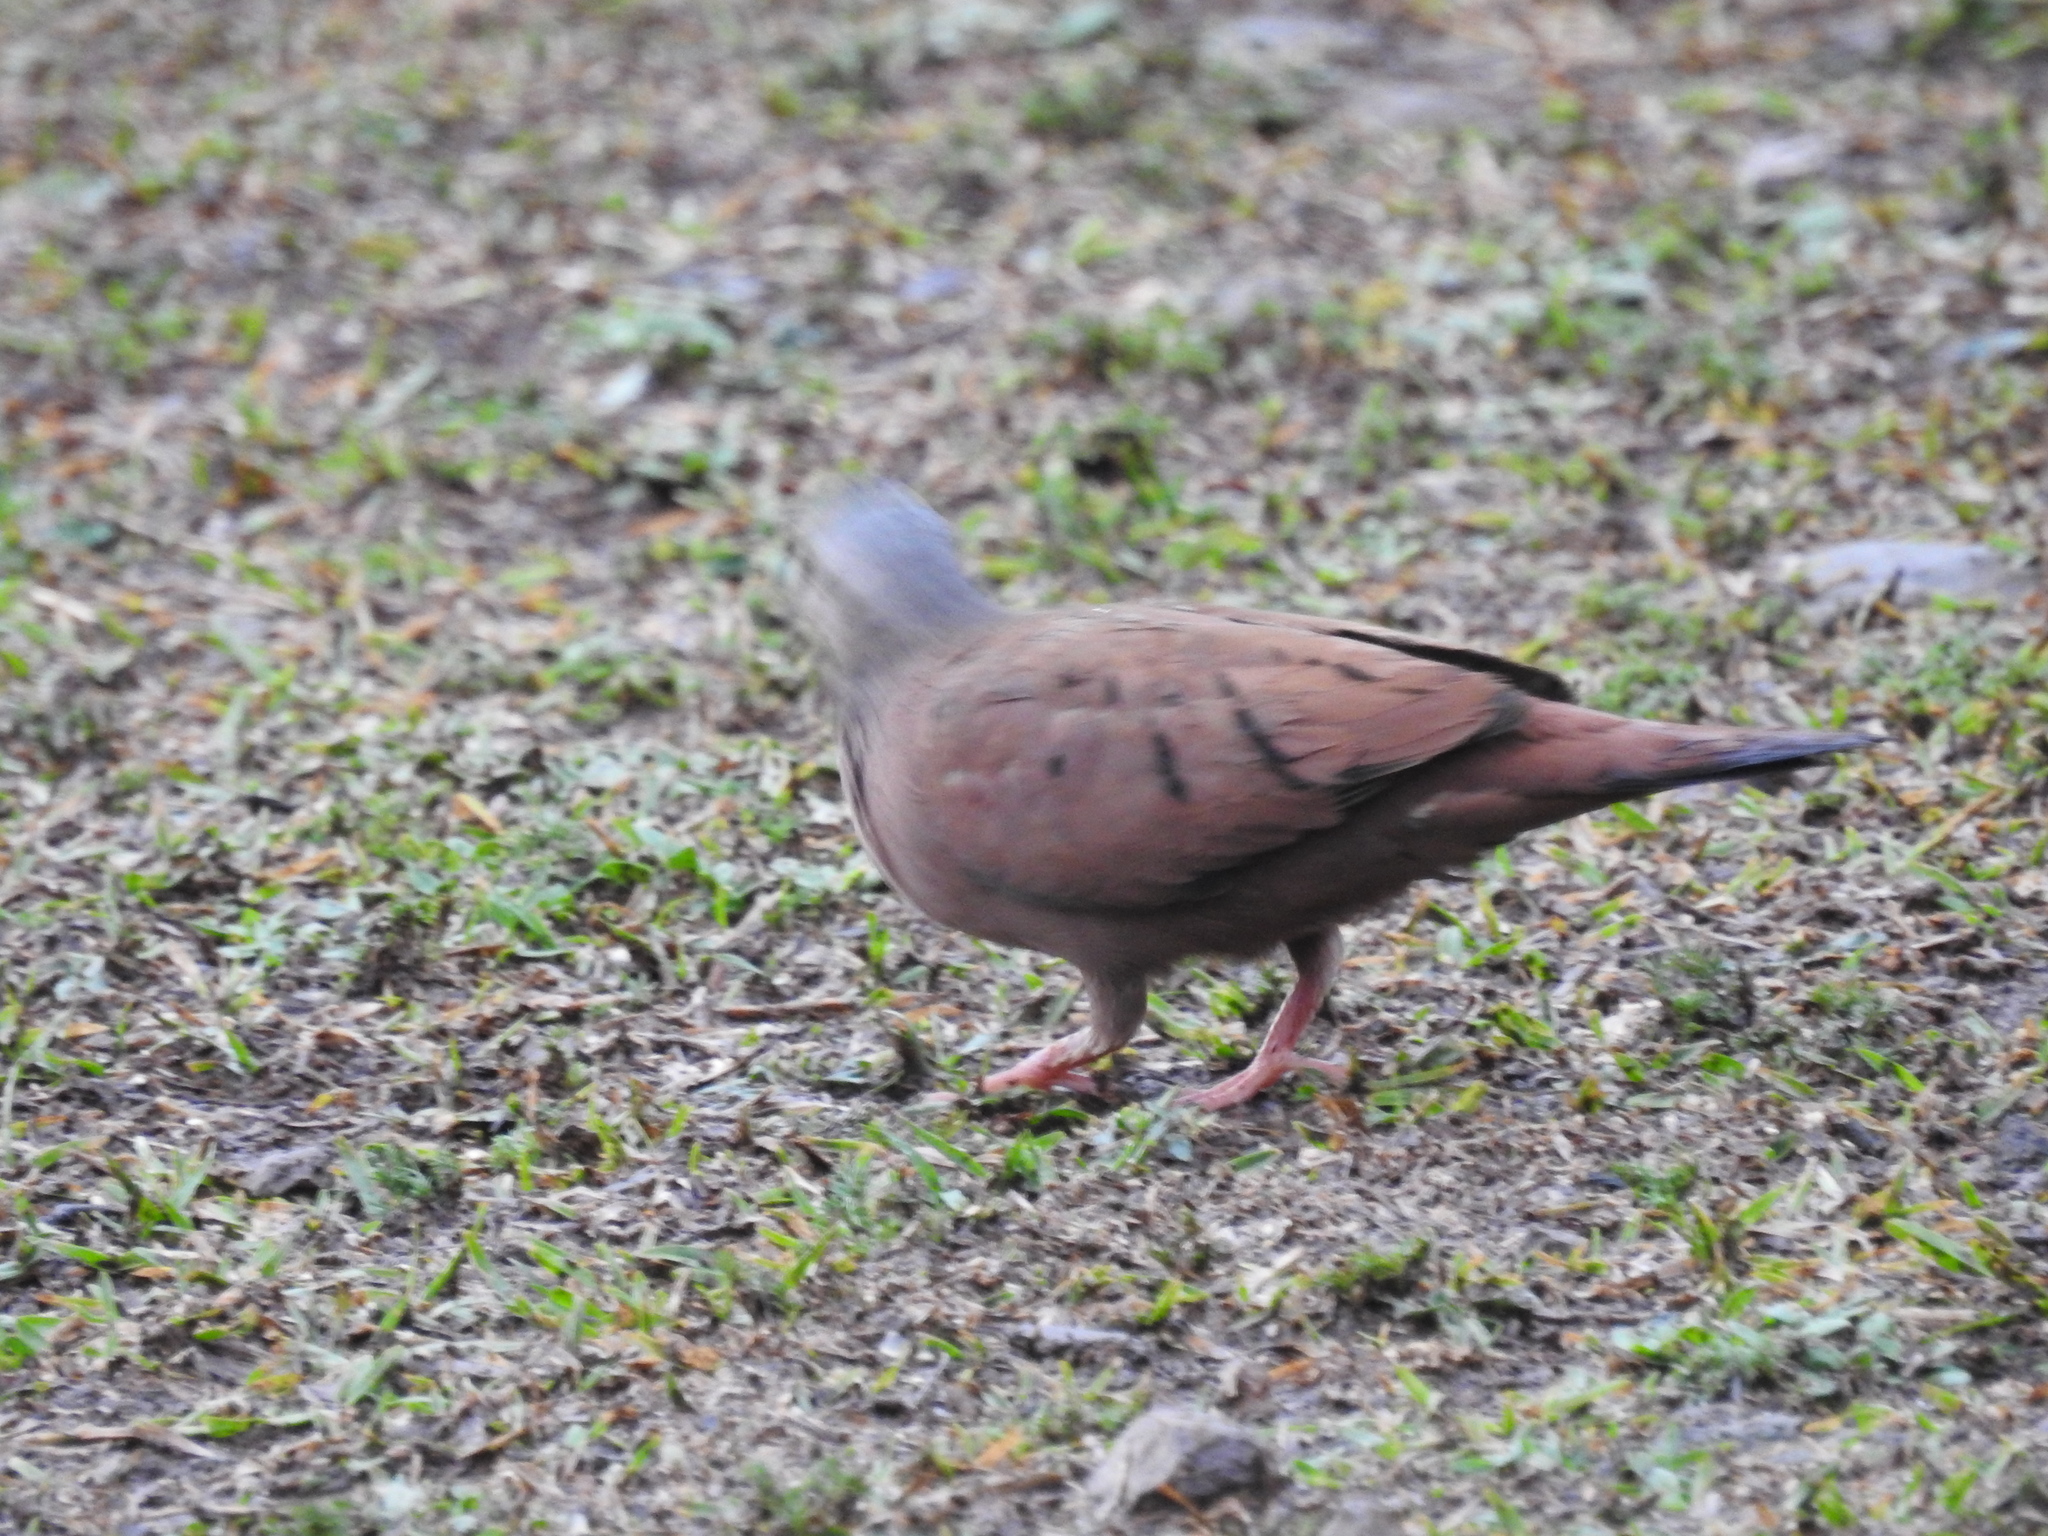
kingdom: Animalia
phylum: Chordata
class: Aves
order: Columbiformes
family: Columbidae
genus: Columbina
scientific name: Columbina talpacoti
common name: Ruddy ground dove
